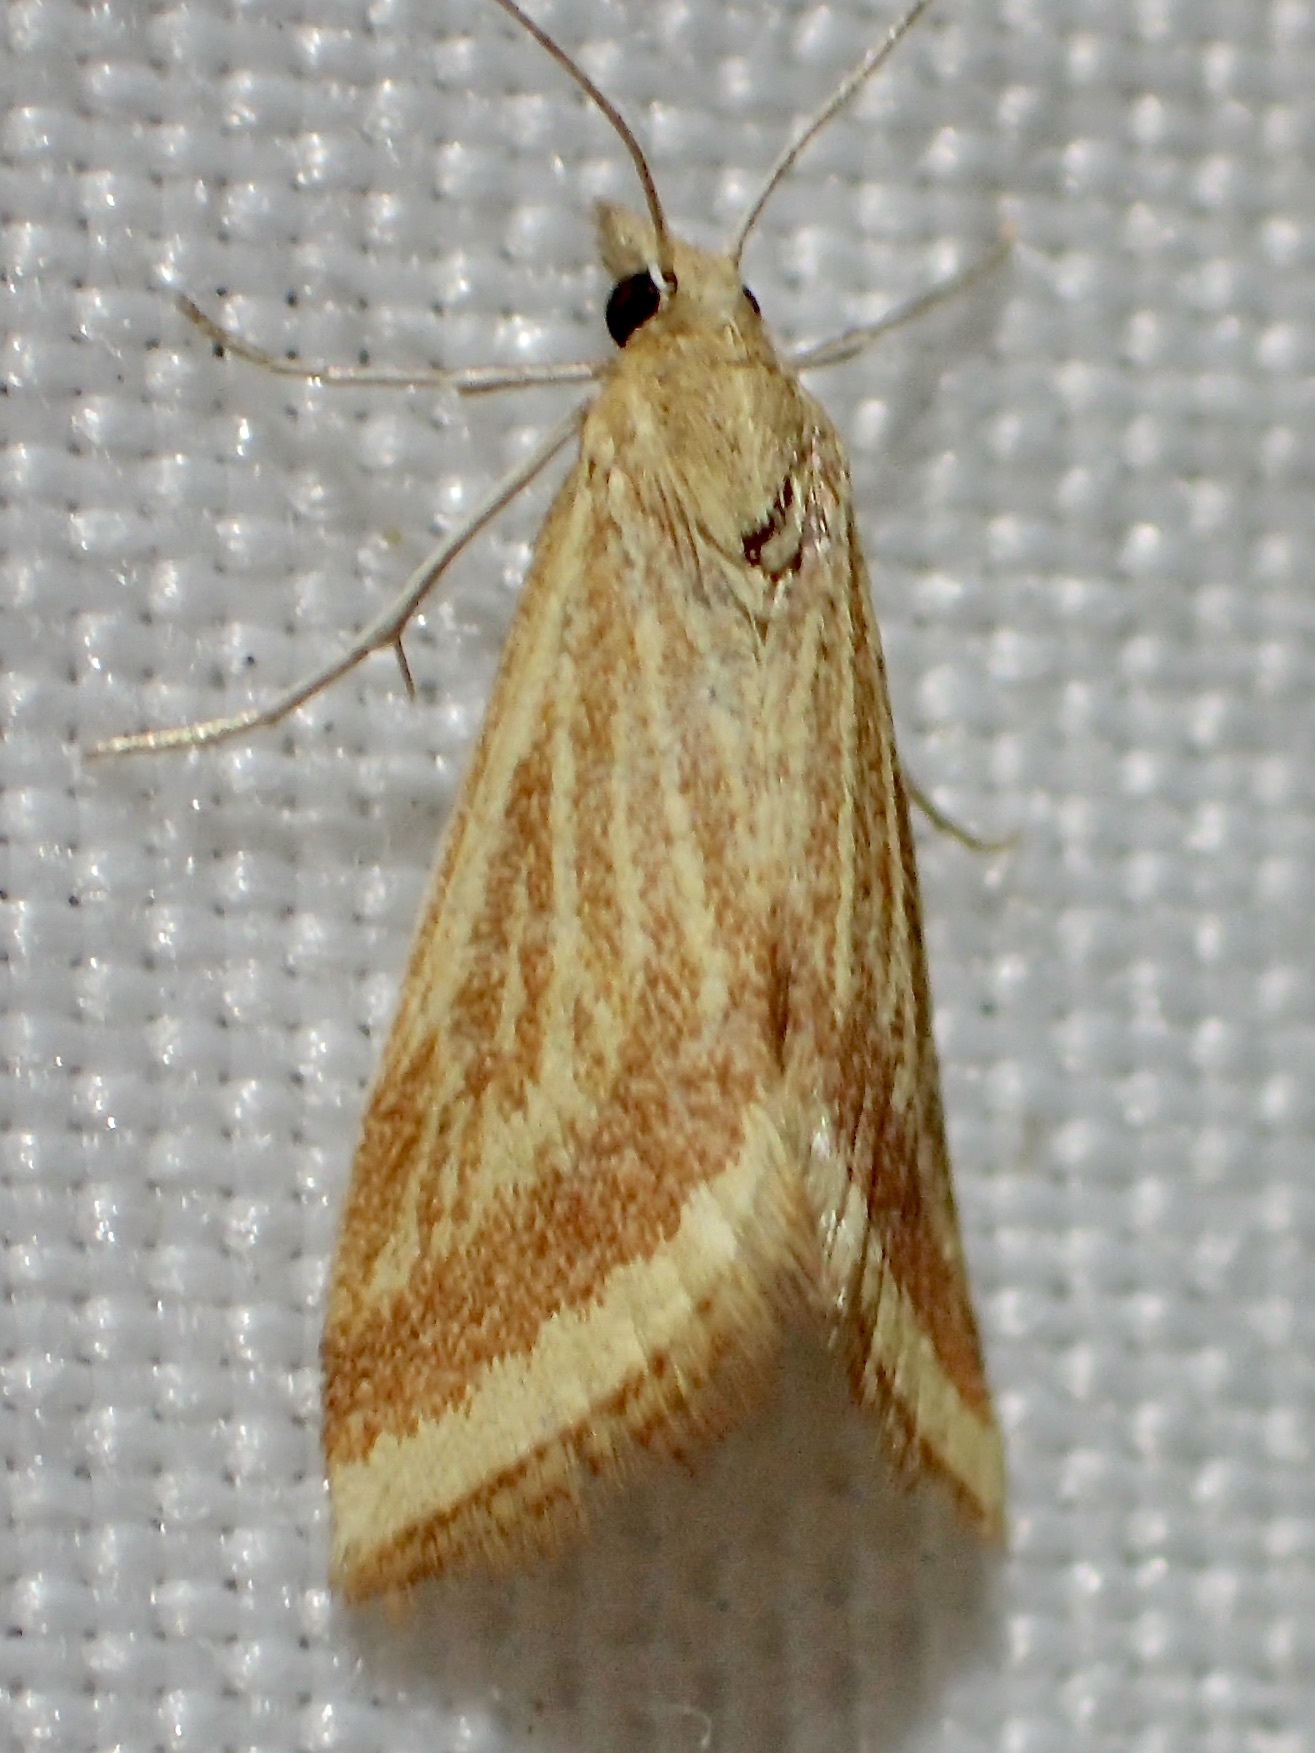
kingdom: Animalia
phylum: Arthropoda
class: Insecta
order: Lepidoptera
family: Crambidae
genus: Microtheoris
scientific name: Microtheoris ophionalis
